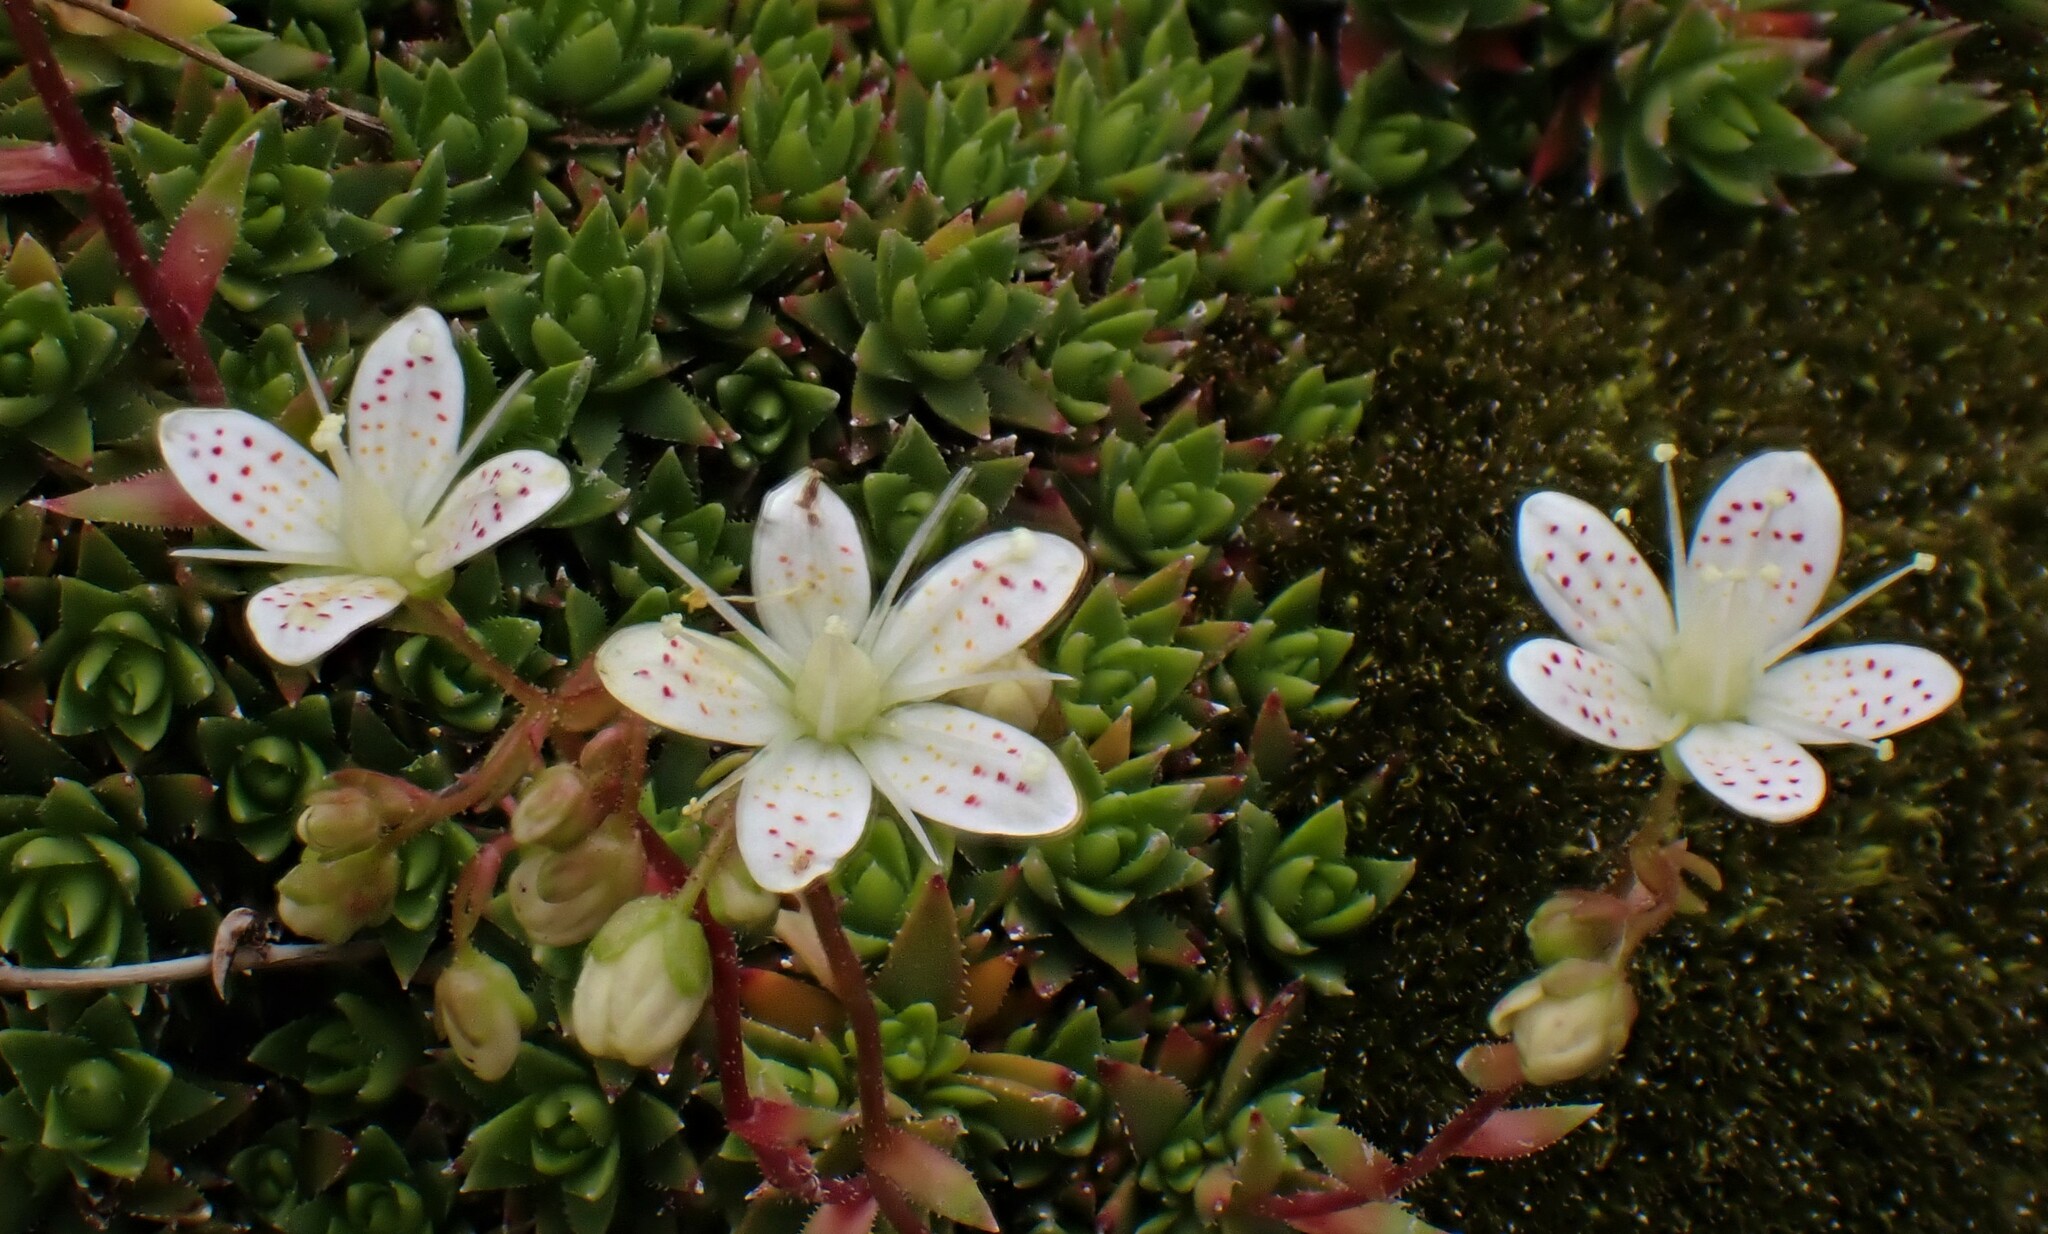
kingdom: Plantae
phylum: Tracheophyta
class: Magnoliopsida
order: Saxifragales
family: Saxifragaceae
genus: Saxifraga
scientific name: Saxifraga bronchialis
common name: Matted saxifrage
